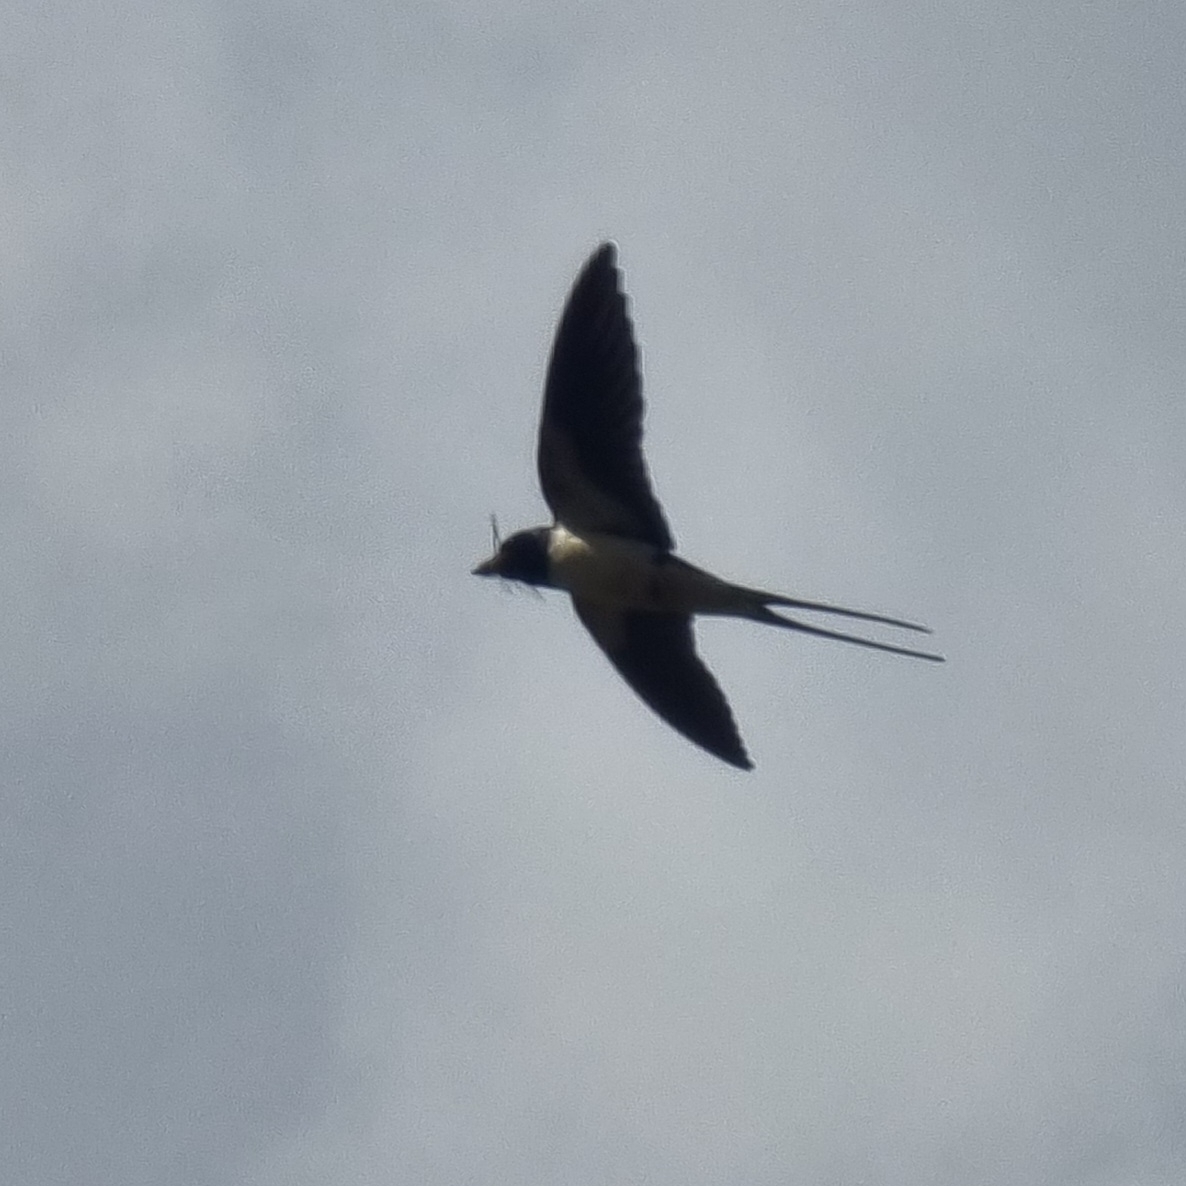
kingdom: Animalia
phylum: Chordata
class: Aves
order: Passeriformes
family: Hirundinidae
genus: Hirundo
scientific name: Hirundo rustica
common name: Barn swallow
